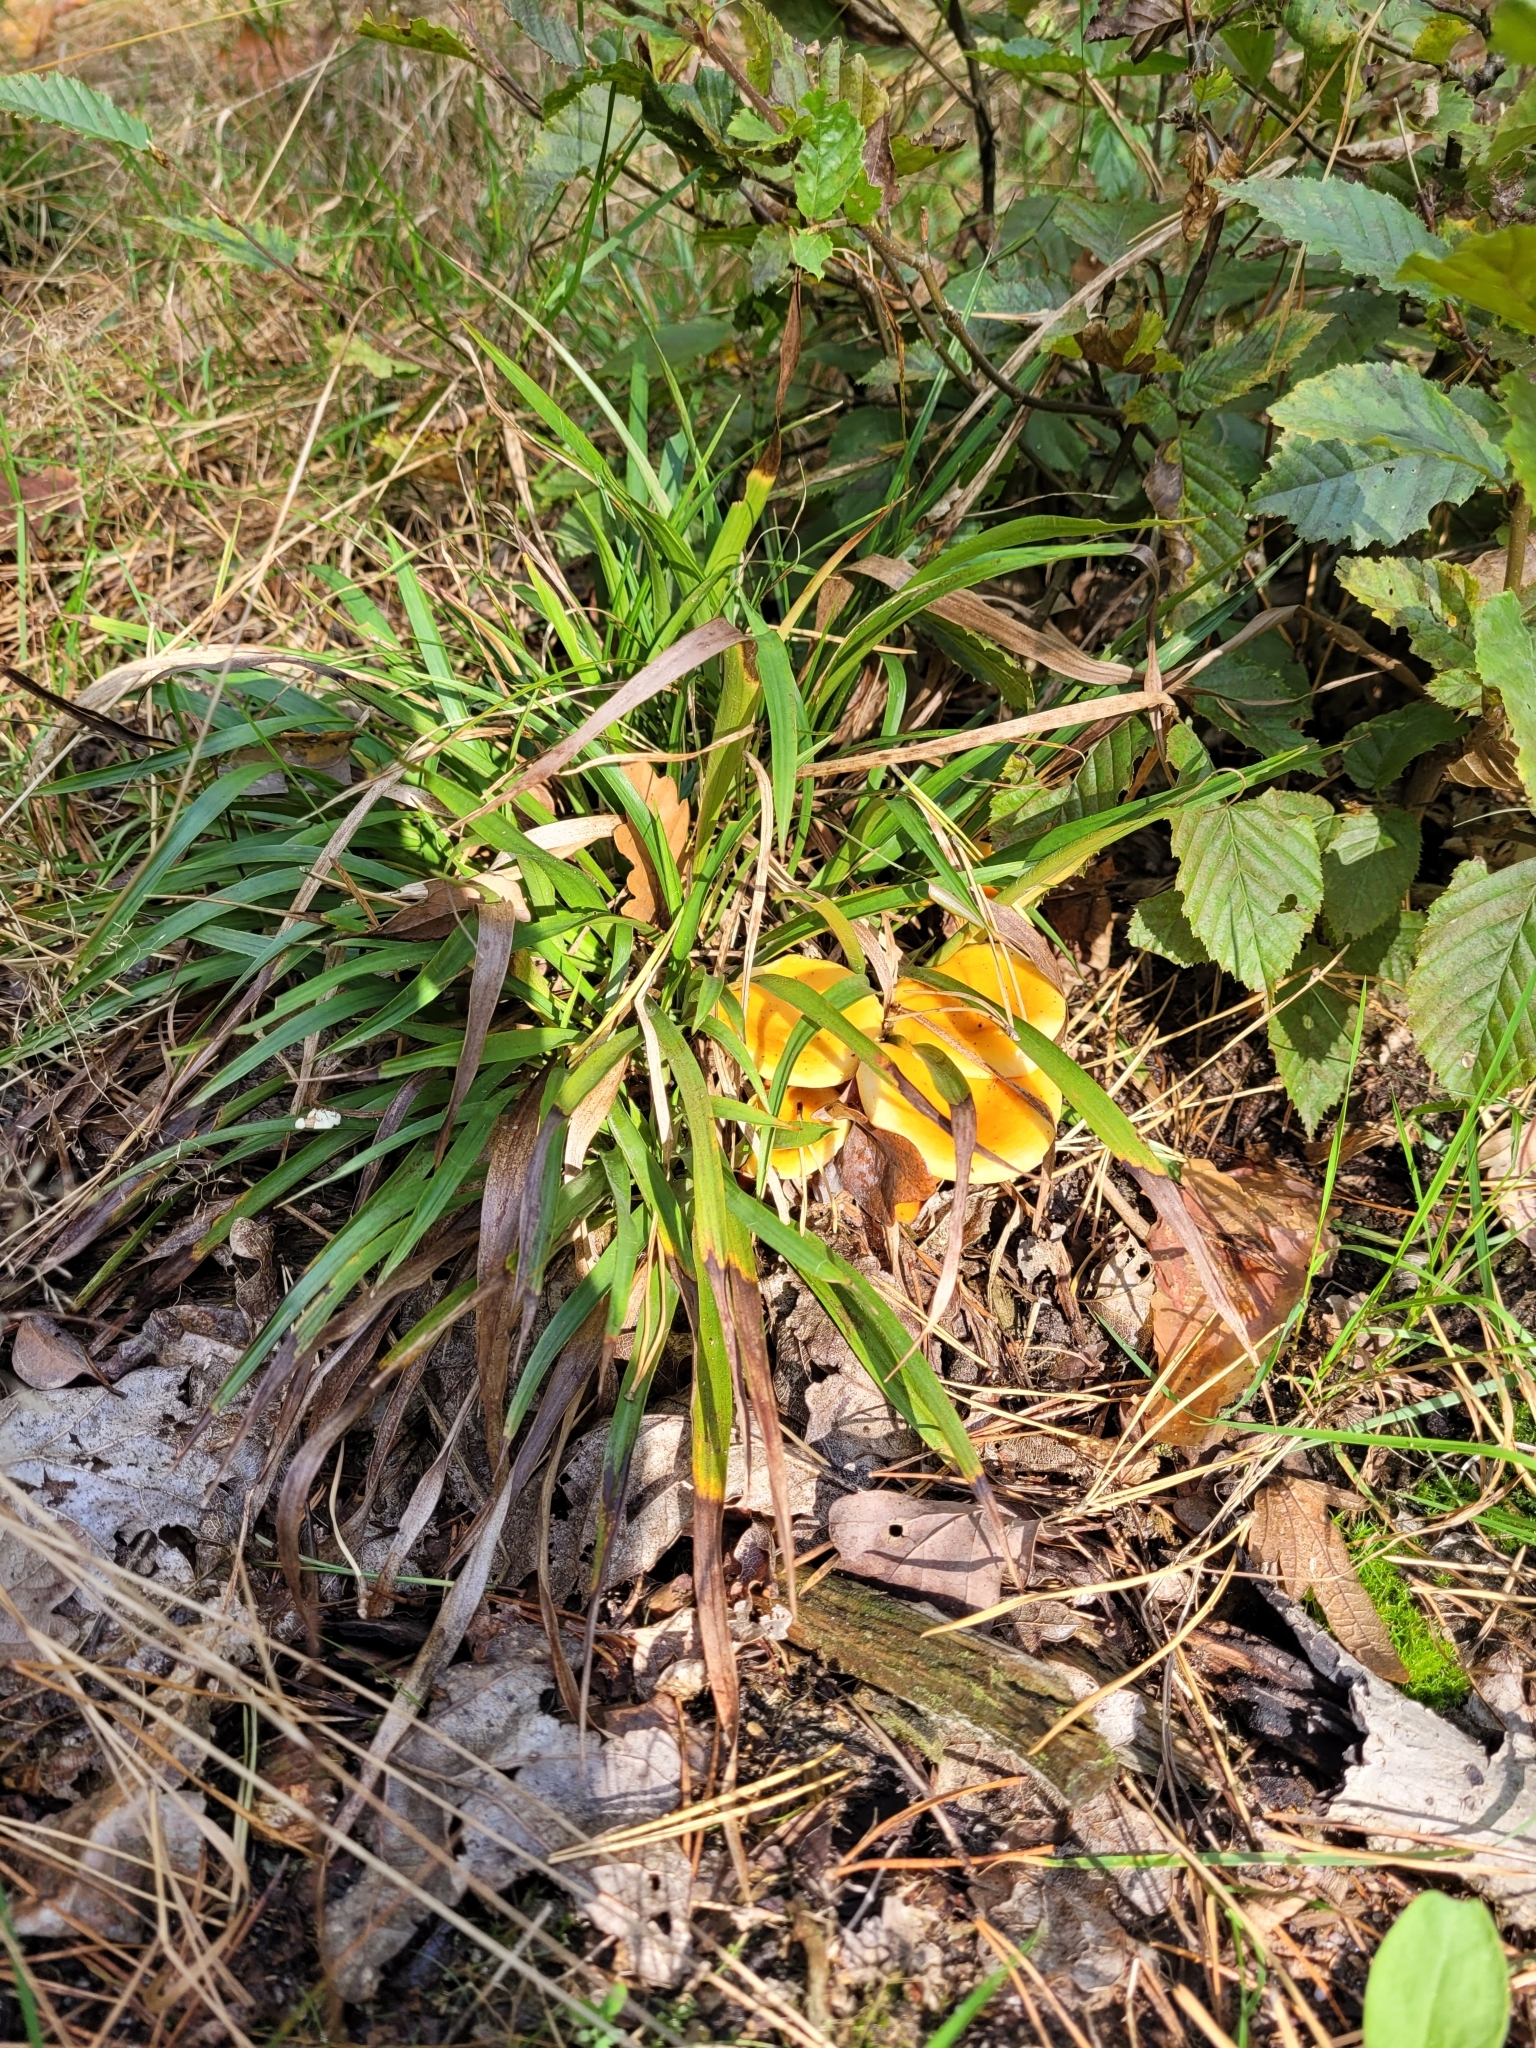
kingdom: Fungi
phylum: Basidiomycota
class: Agaricomycetes
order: Boletales
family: Hygrophoropsidaceae
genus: Hygrophoropsis
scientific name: Hygrophoropsis aurantiaca
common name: False chanterelle
